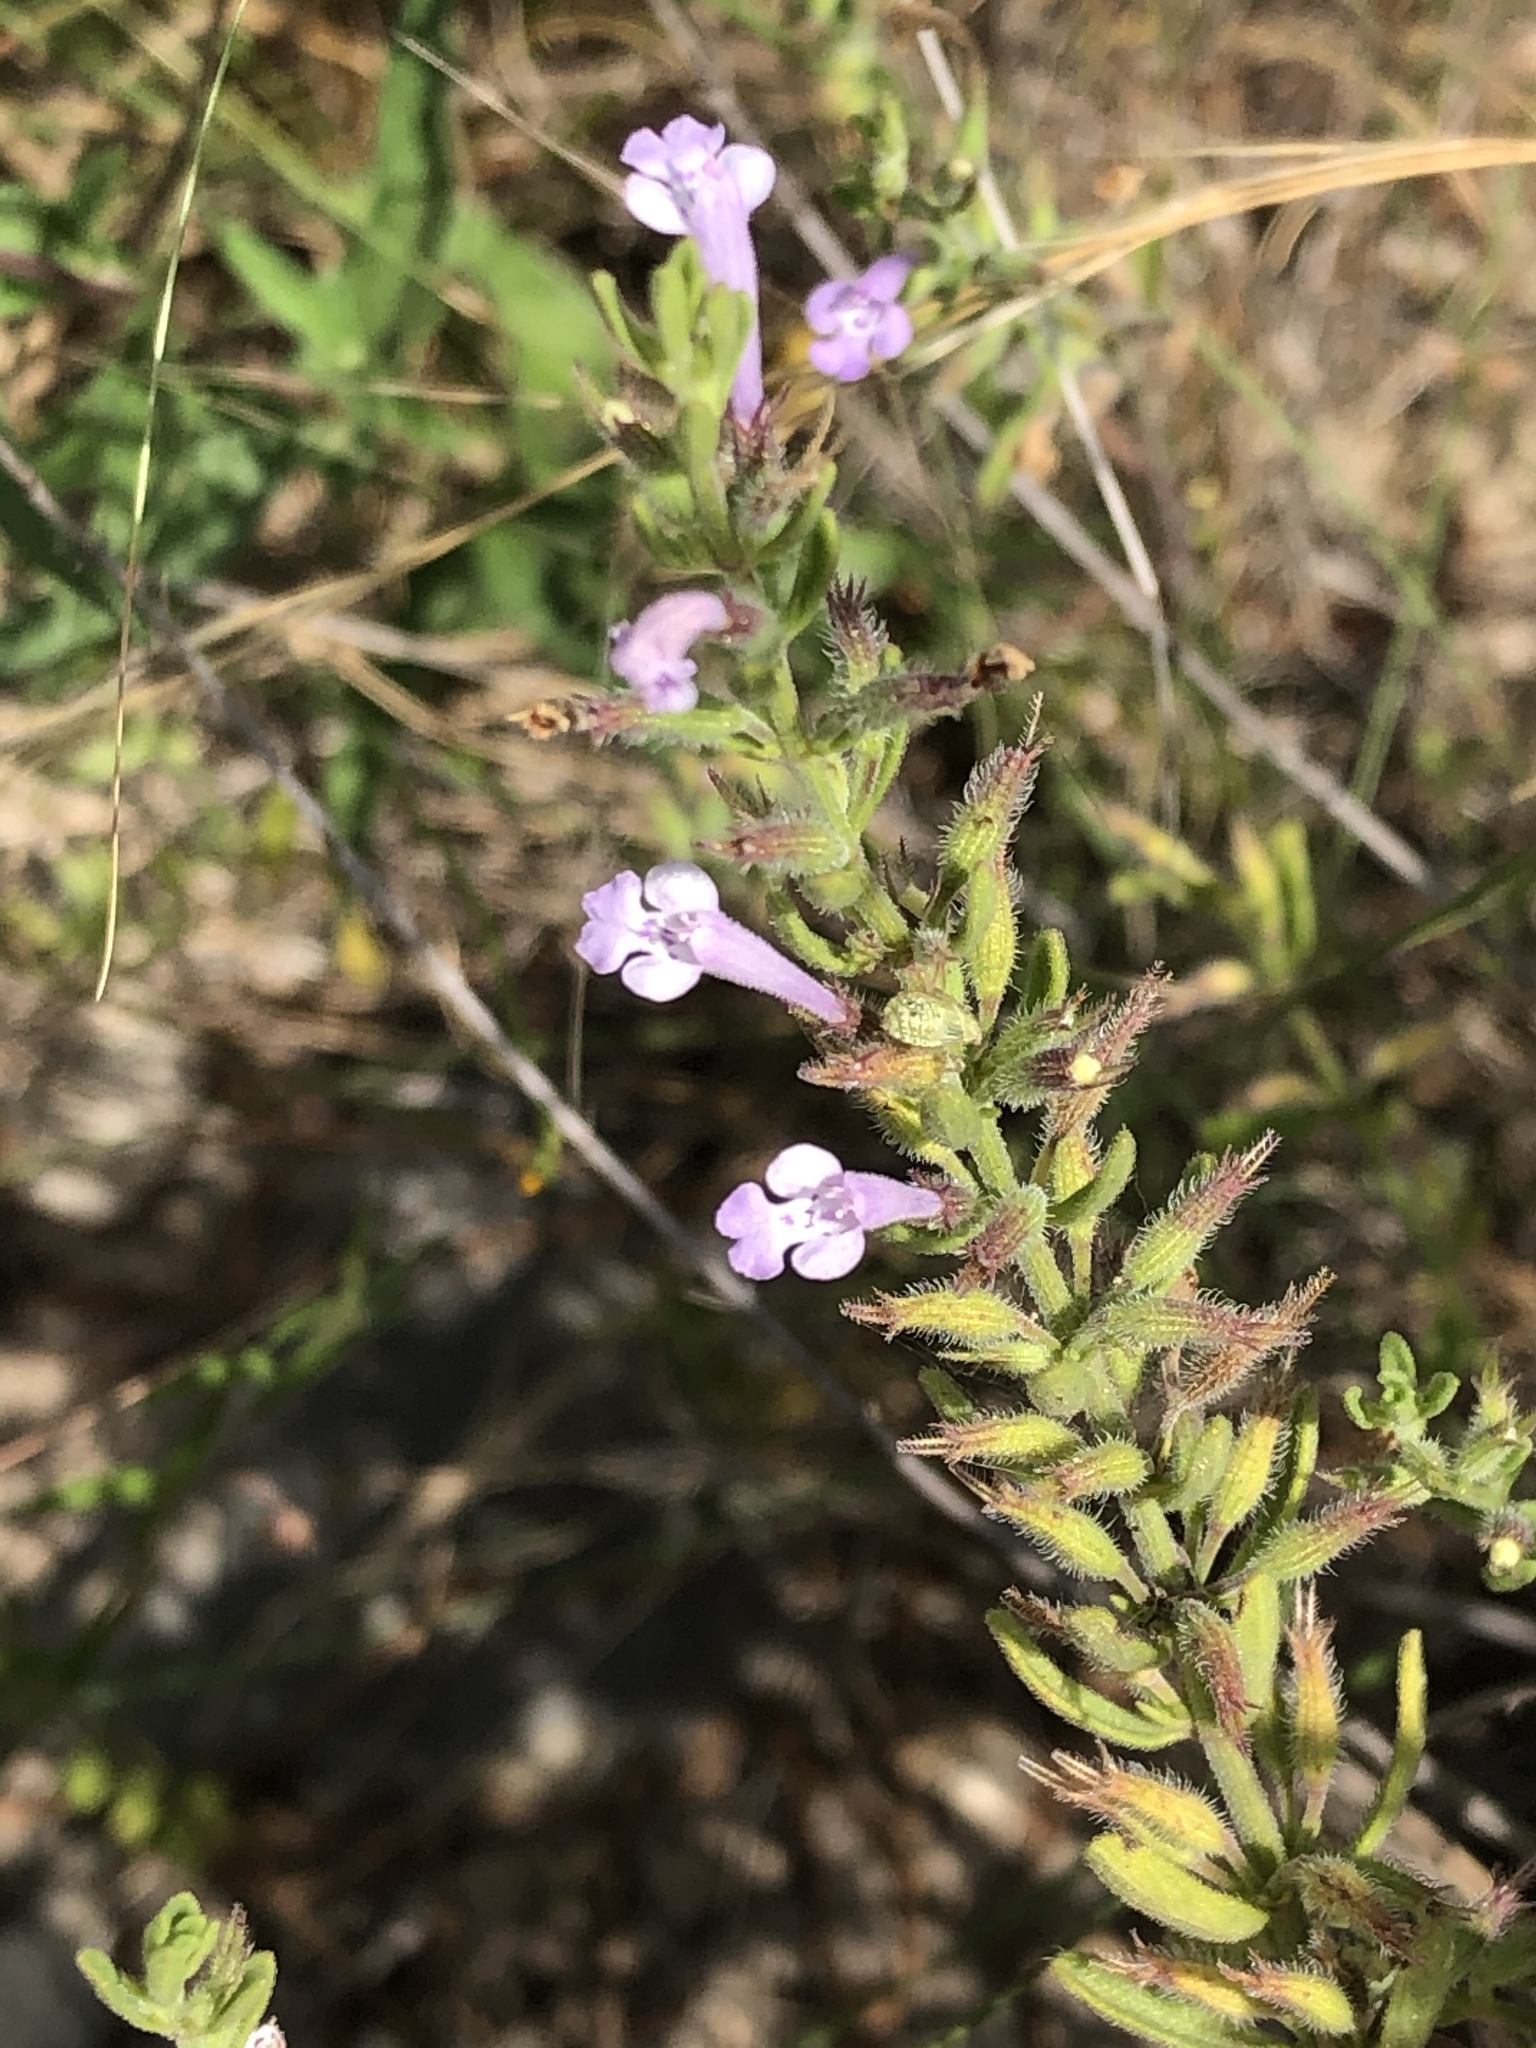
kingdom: Plantae
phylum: Tracheophyta
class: Magnoliopsida
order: Lamiales
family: Lamiaceae
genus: Hedeoma
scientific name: Hedeoma reverchonii
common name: Reverchon's false penny-royal
